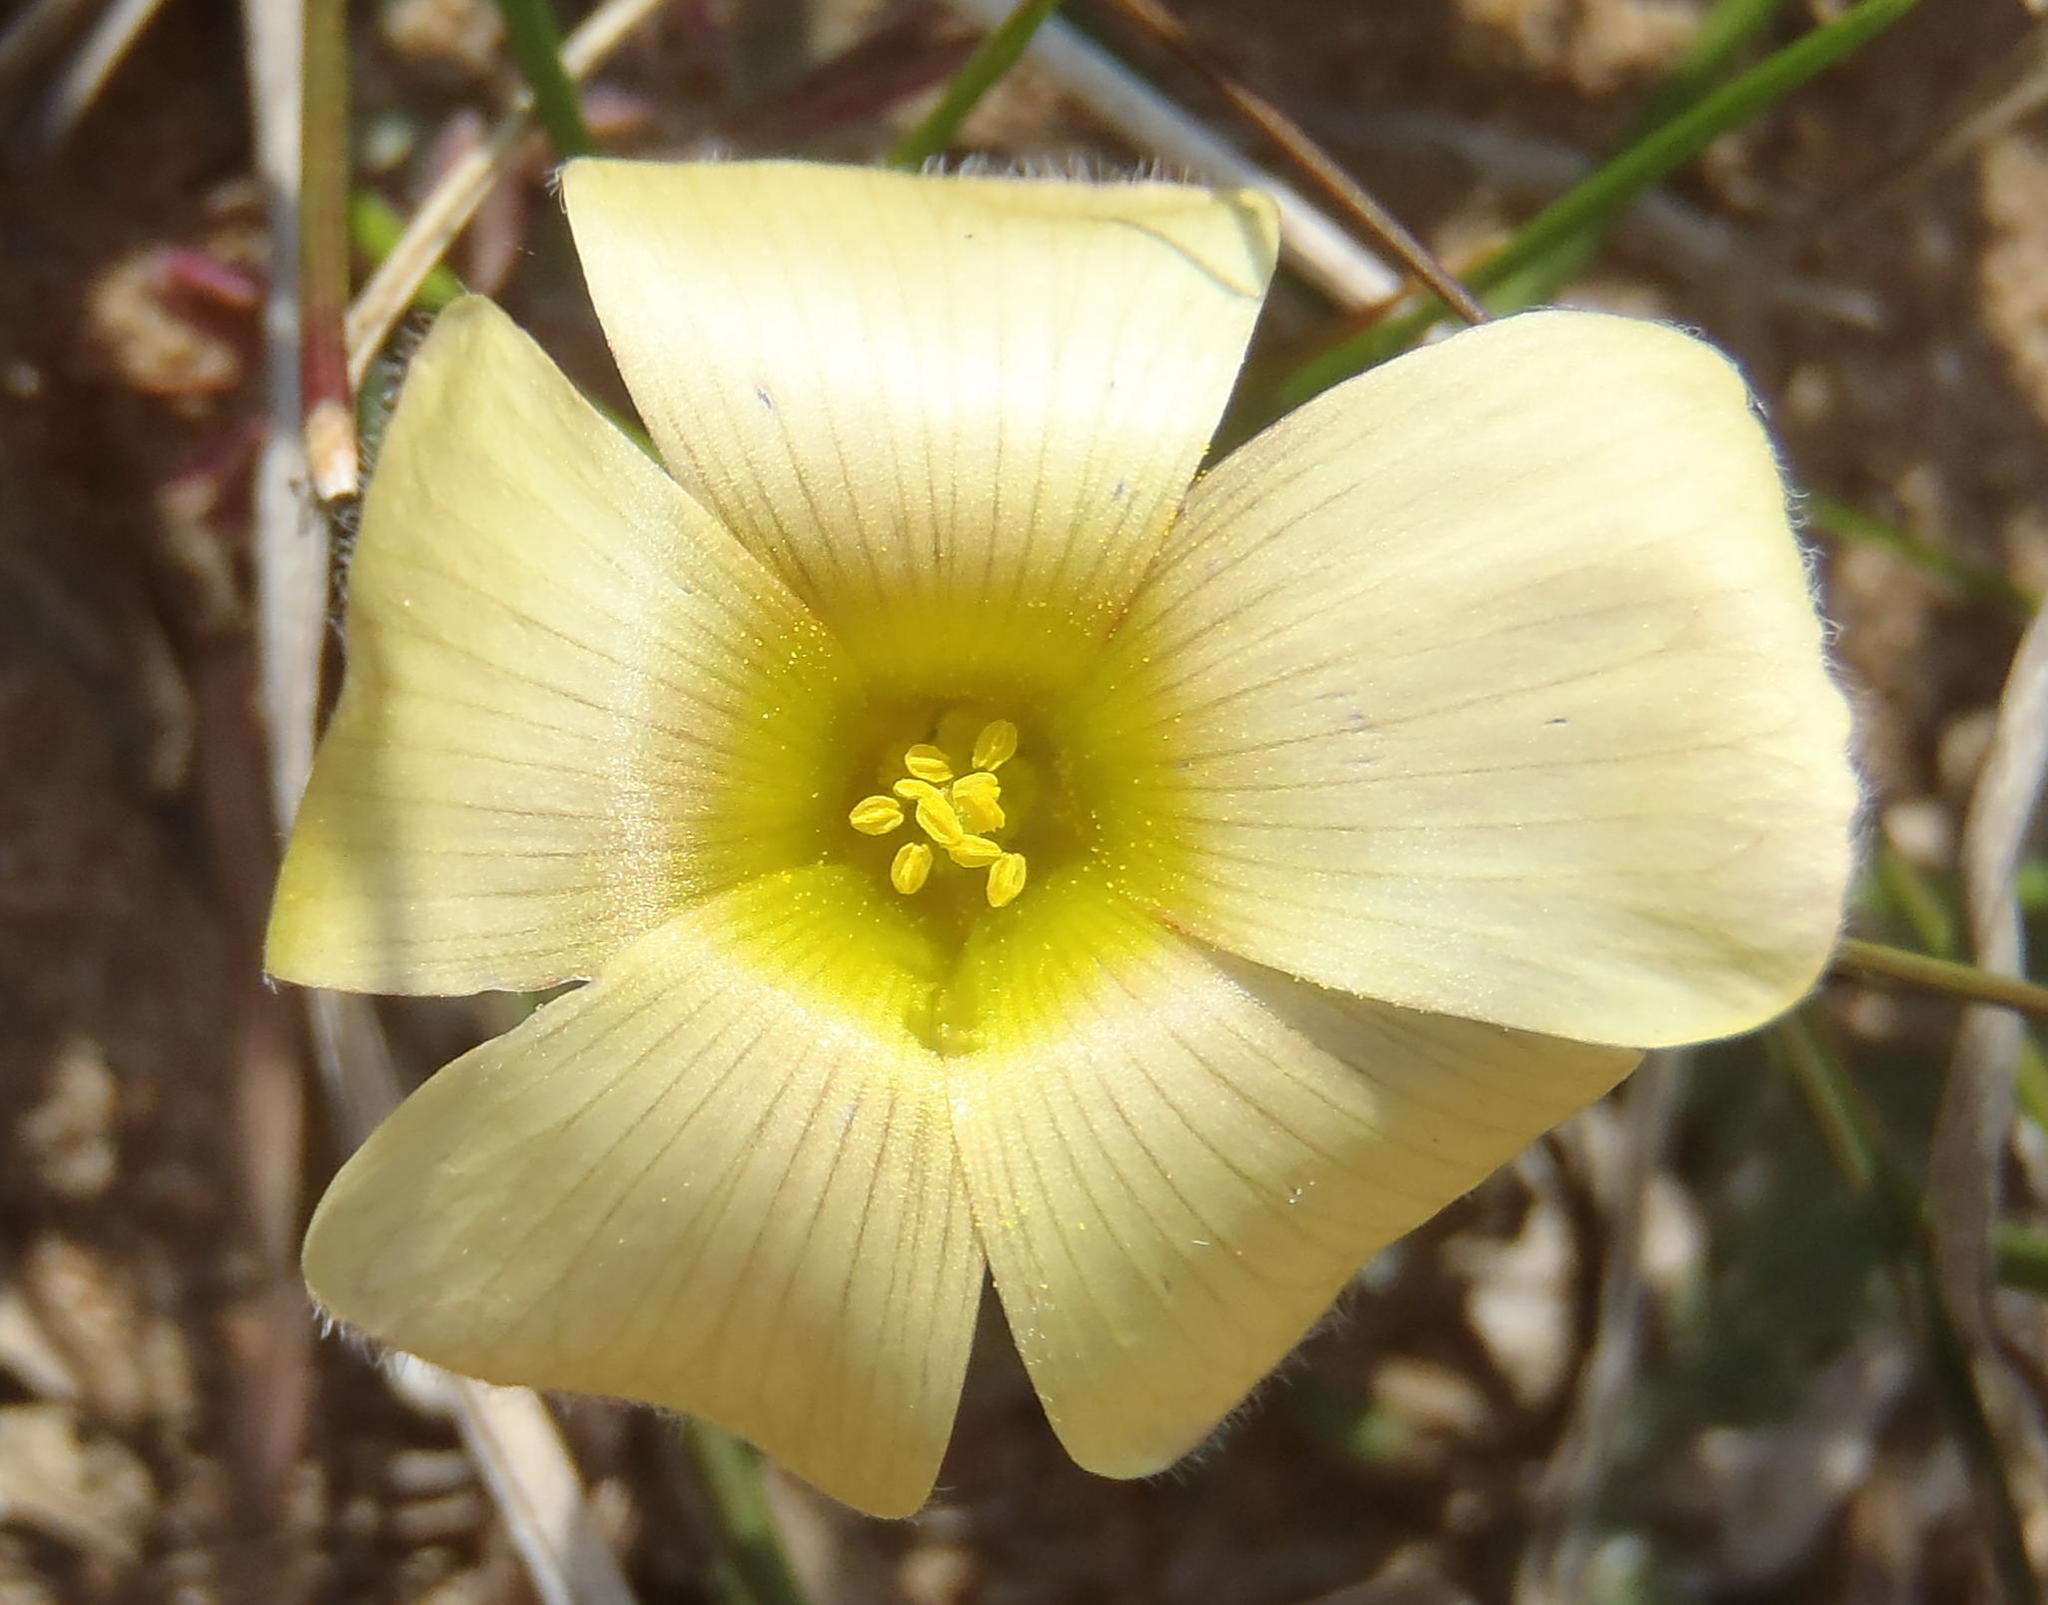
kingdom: Plantae
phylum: Tracheophyta
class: Magnoliopsida
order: Oxalidales
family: Oxalidaceae
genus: Oxalis
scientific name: Oxalis obtusa
